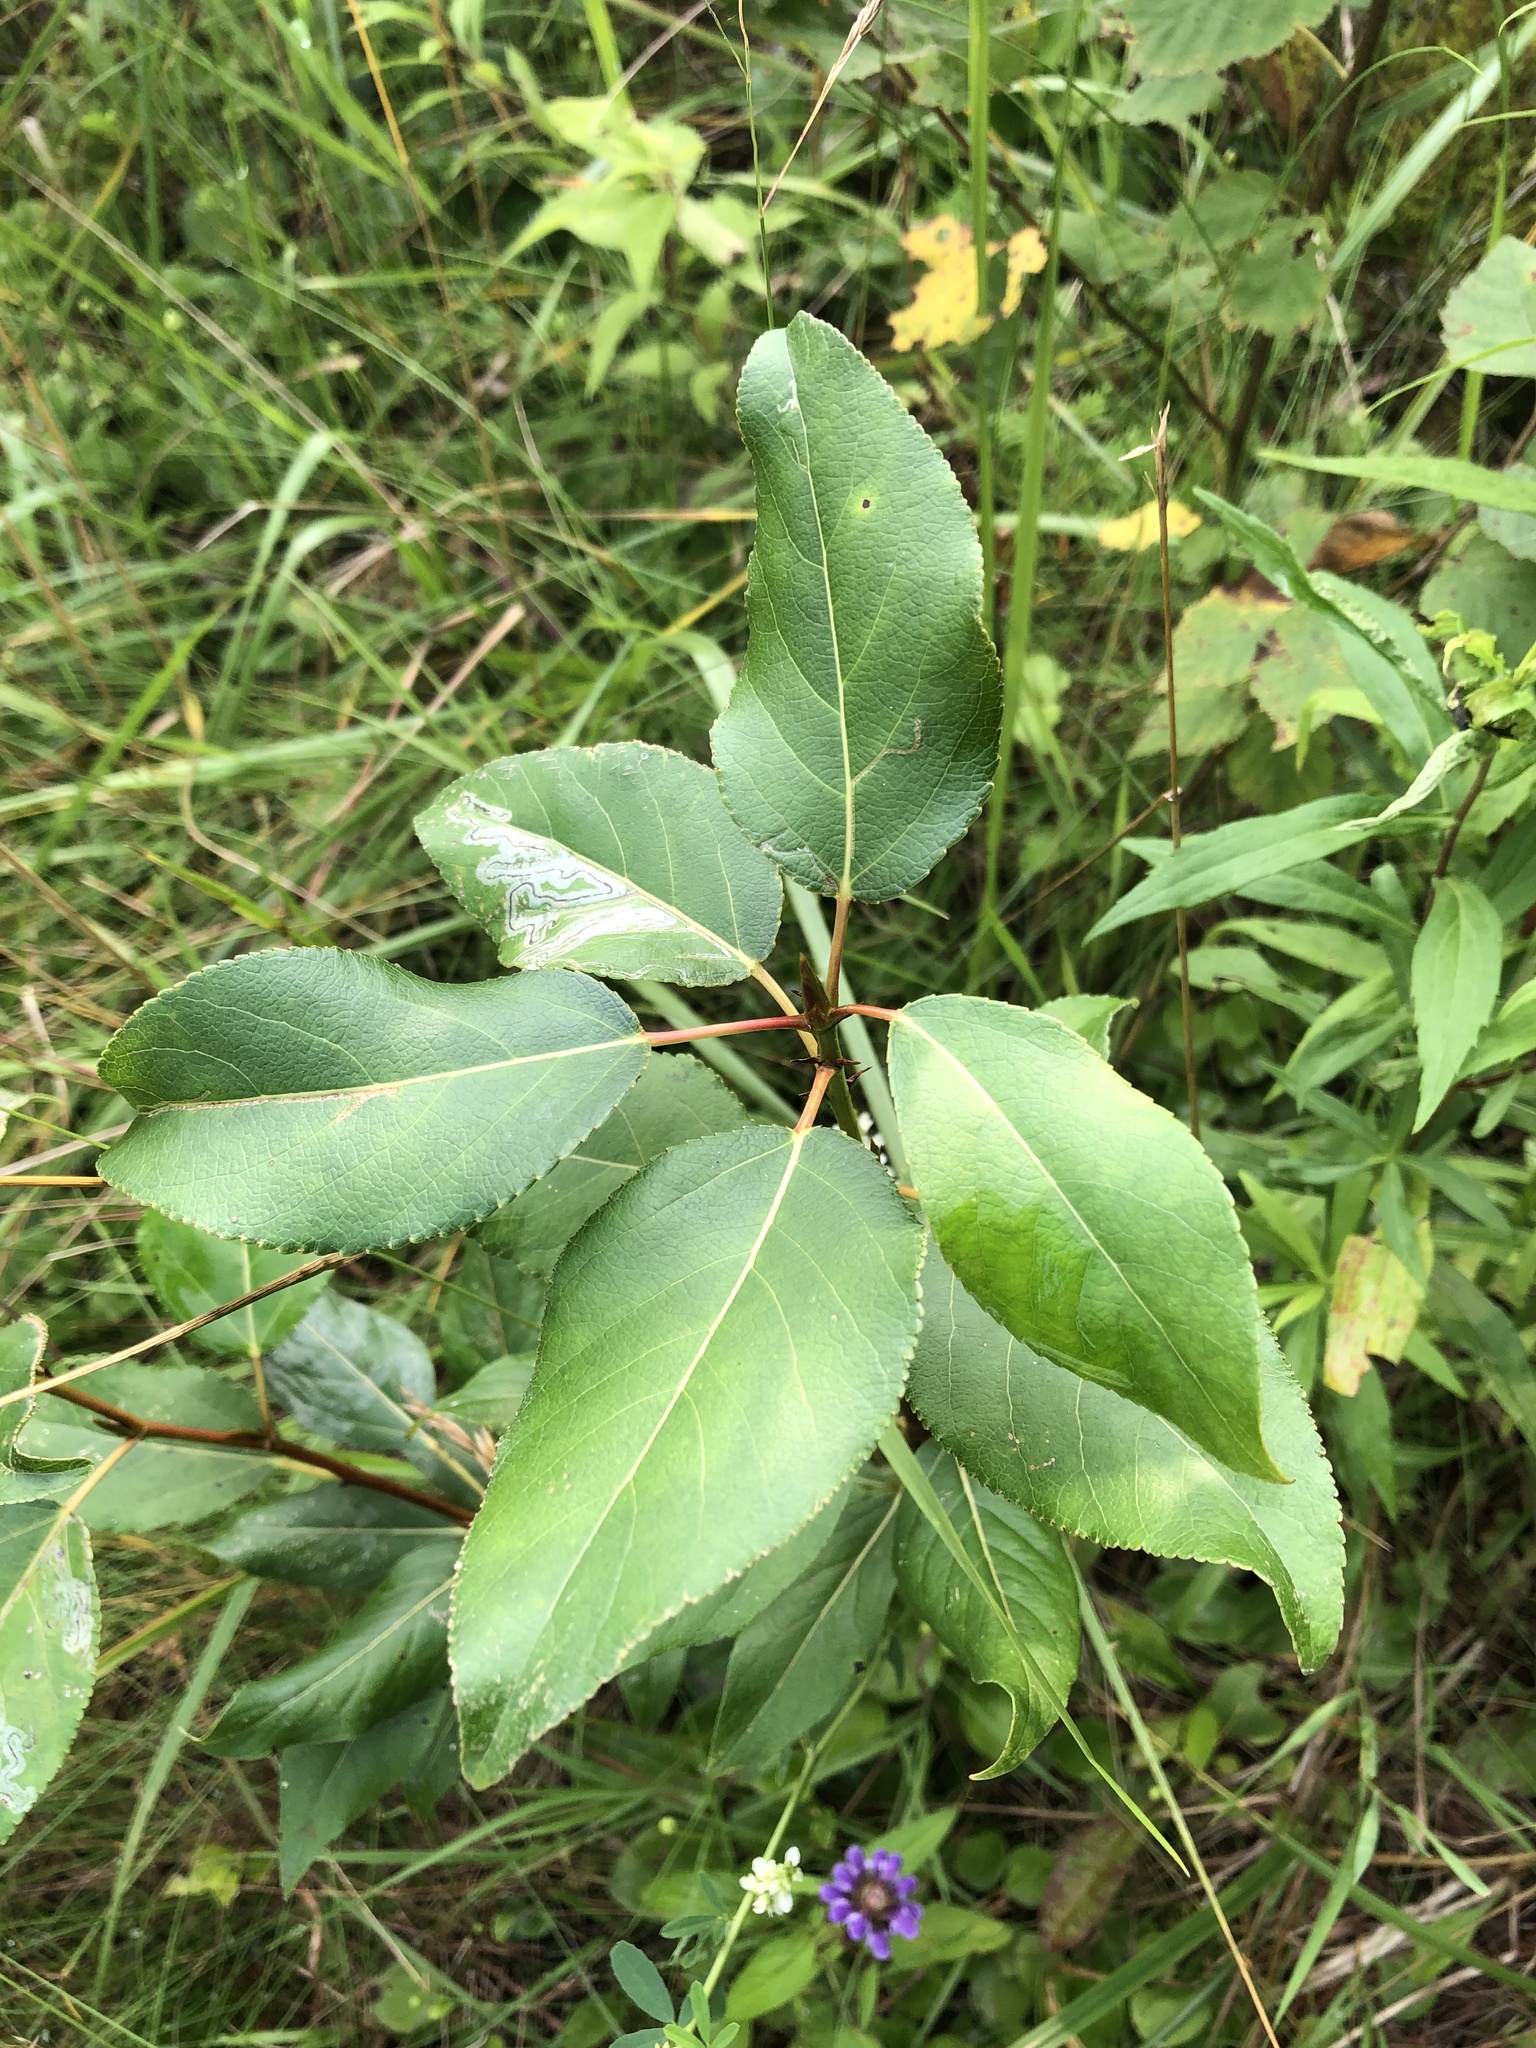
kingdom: Plantae
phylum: Tracheophyta
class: Magnoliopsida
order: Malpighiales
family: Salicaceae
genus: Populus
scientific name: Populus balsamifera
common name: Balsam poplar
